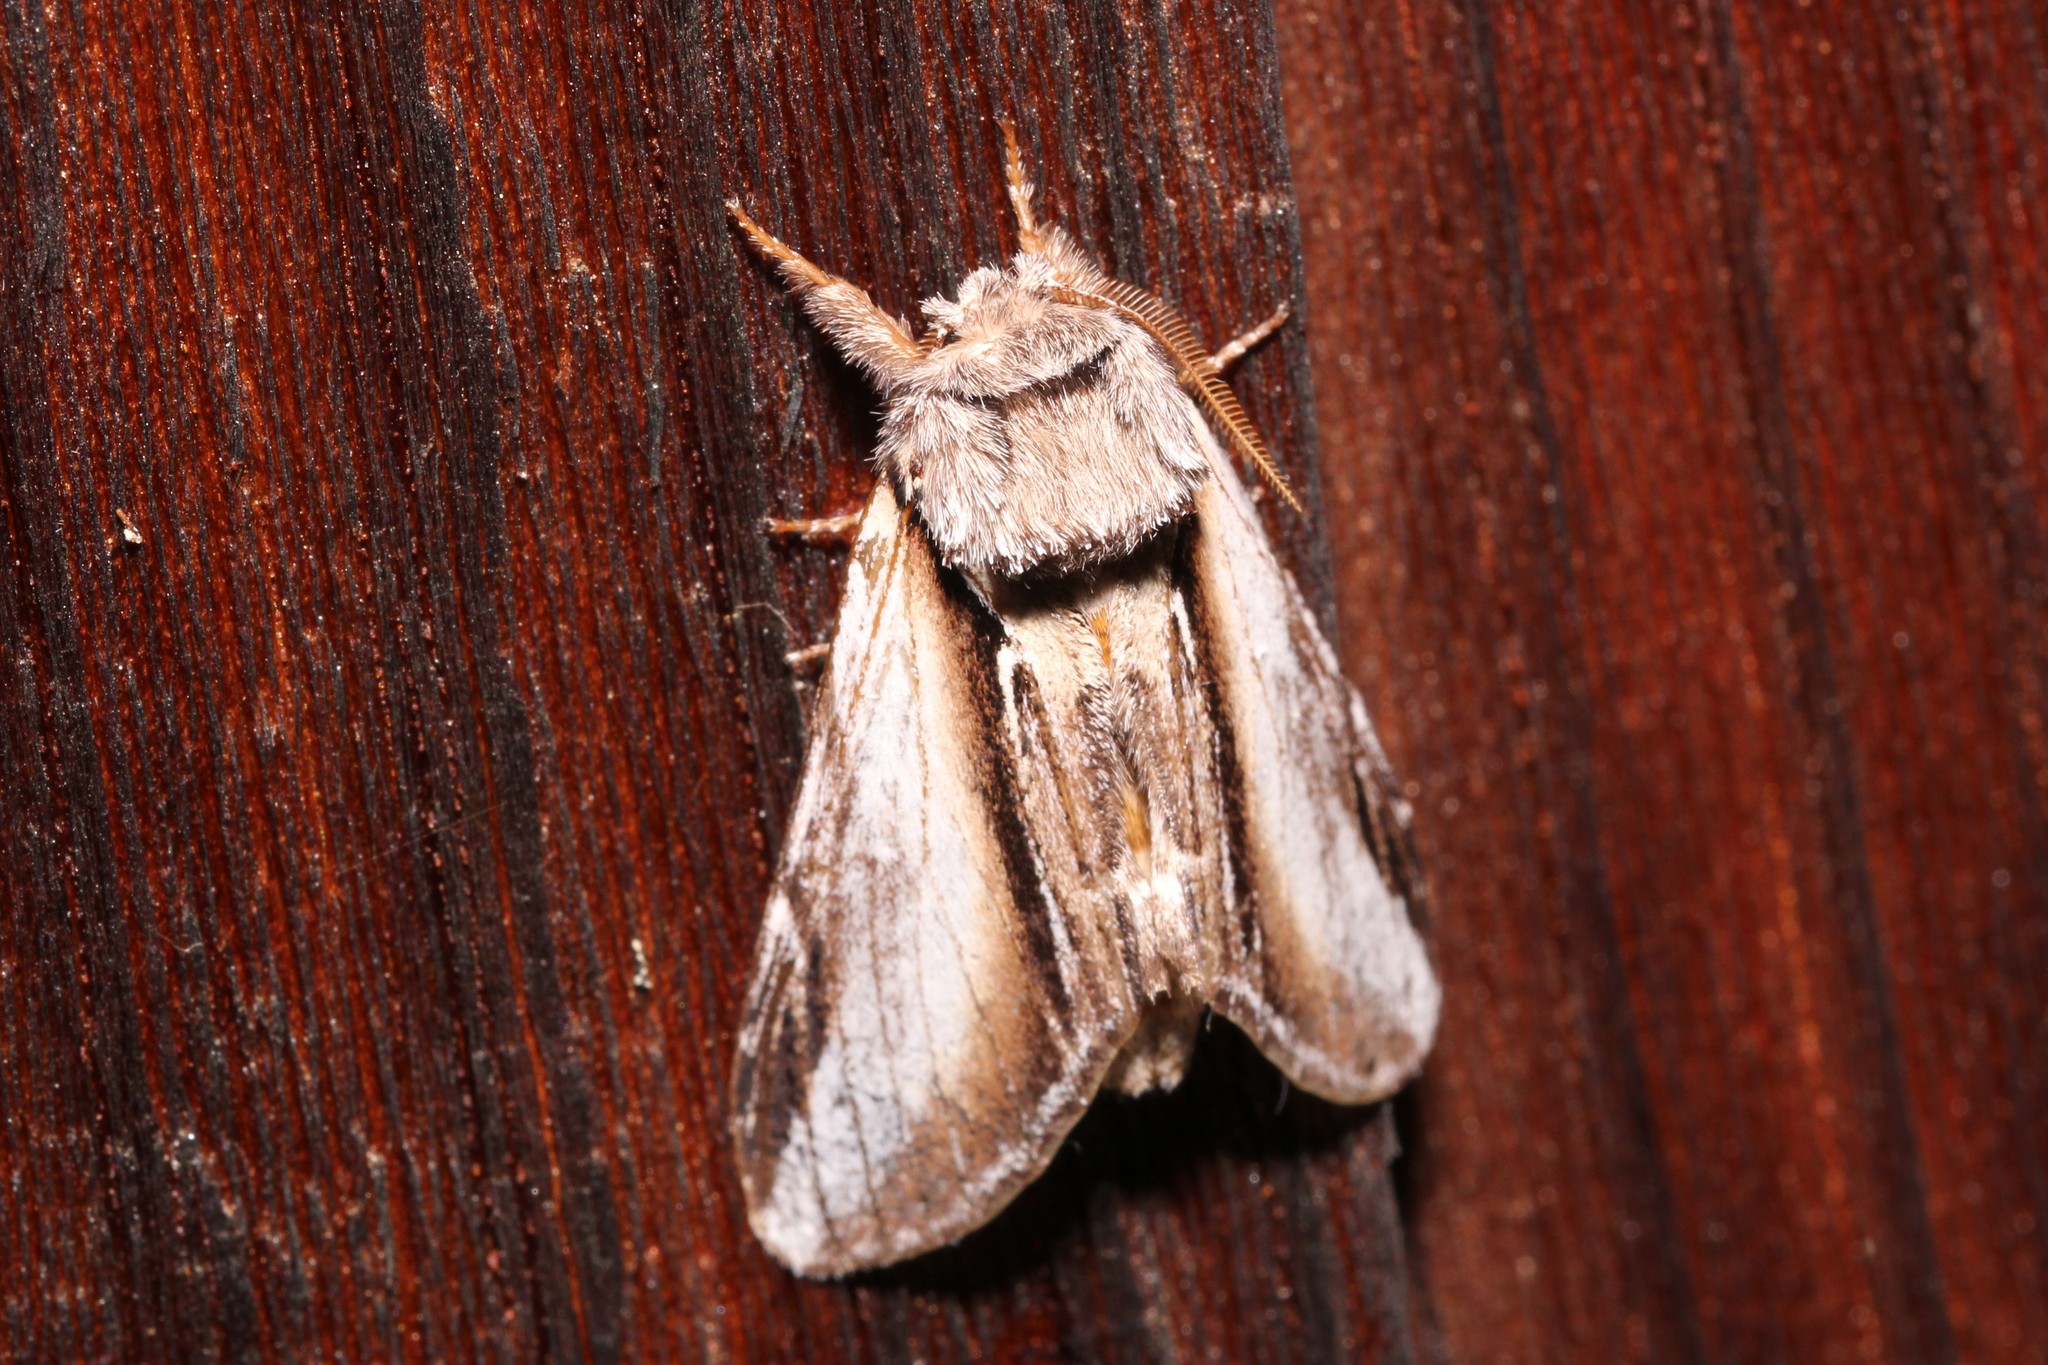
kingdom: Animalia
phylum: Arthropoda
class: Insecta
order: Lepidoptera
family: Notodontidae
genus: Pheosia
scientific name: Pheosia rimosa
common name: Black-rimmed prominent
